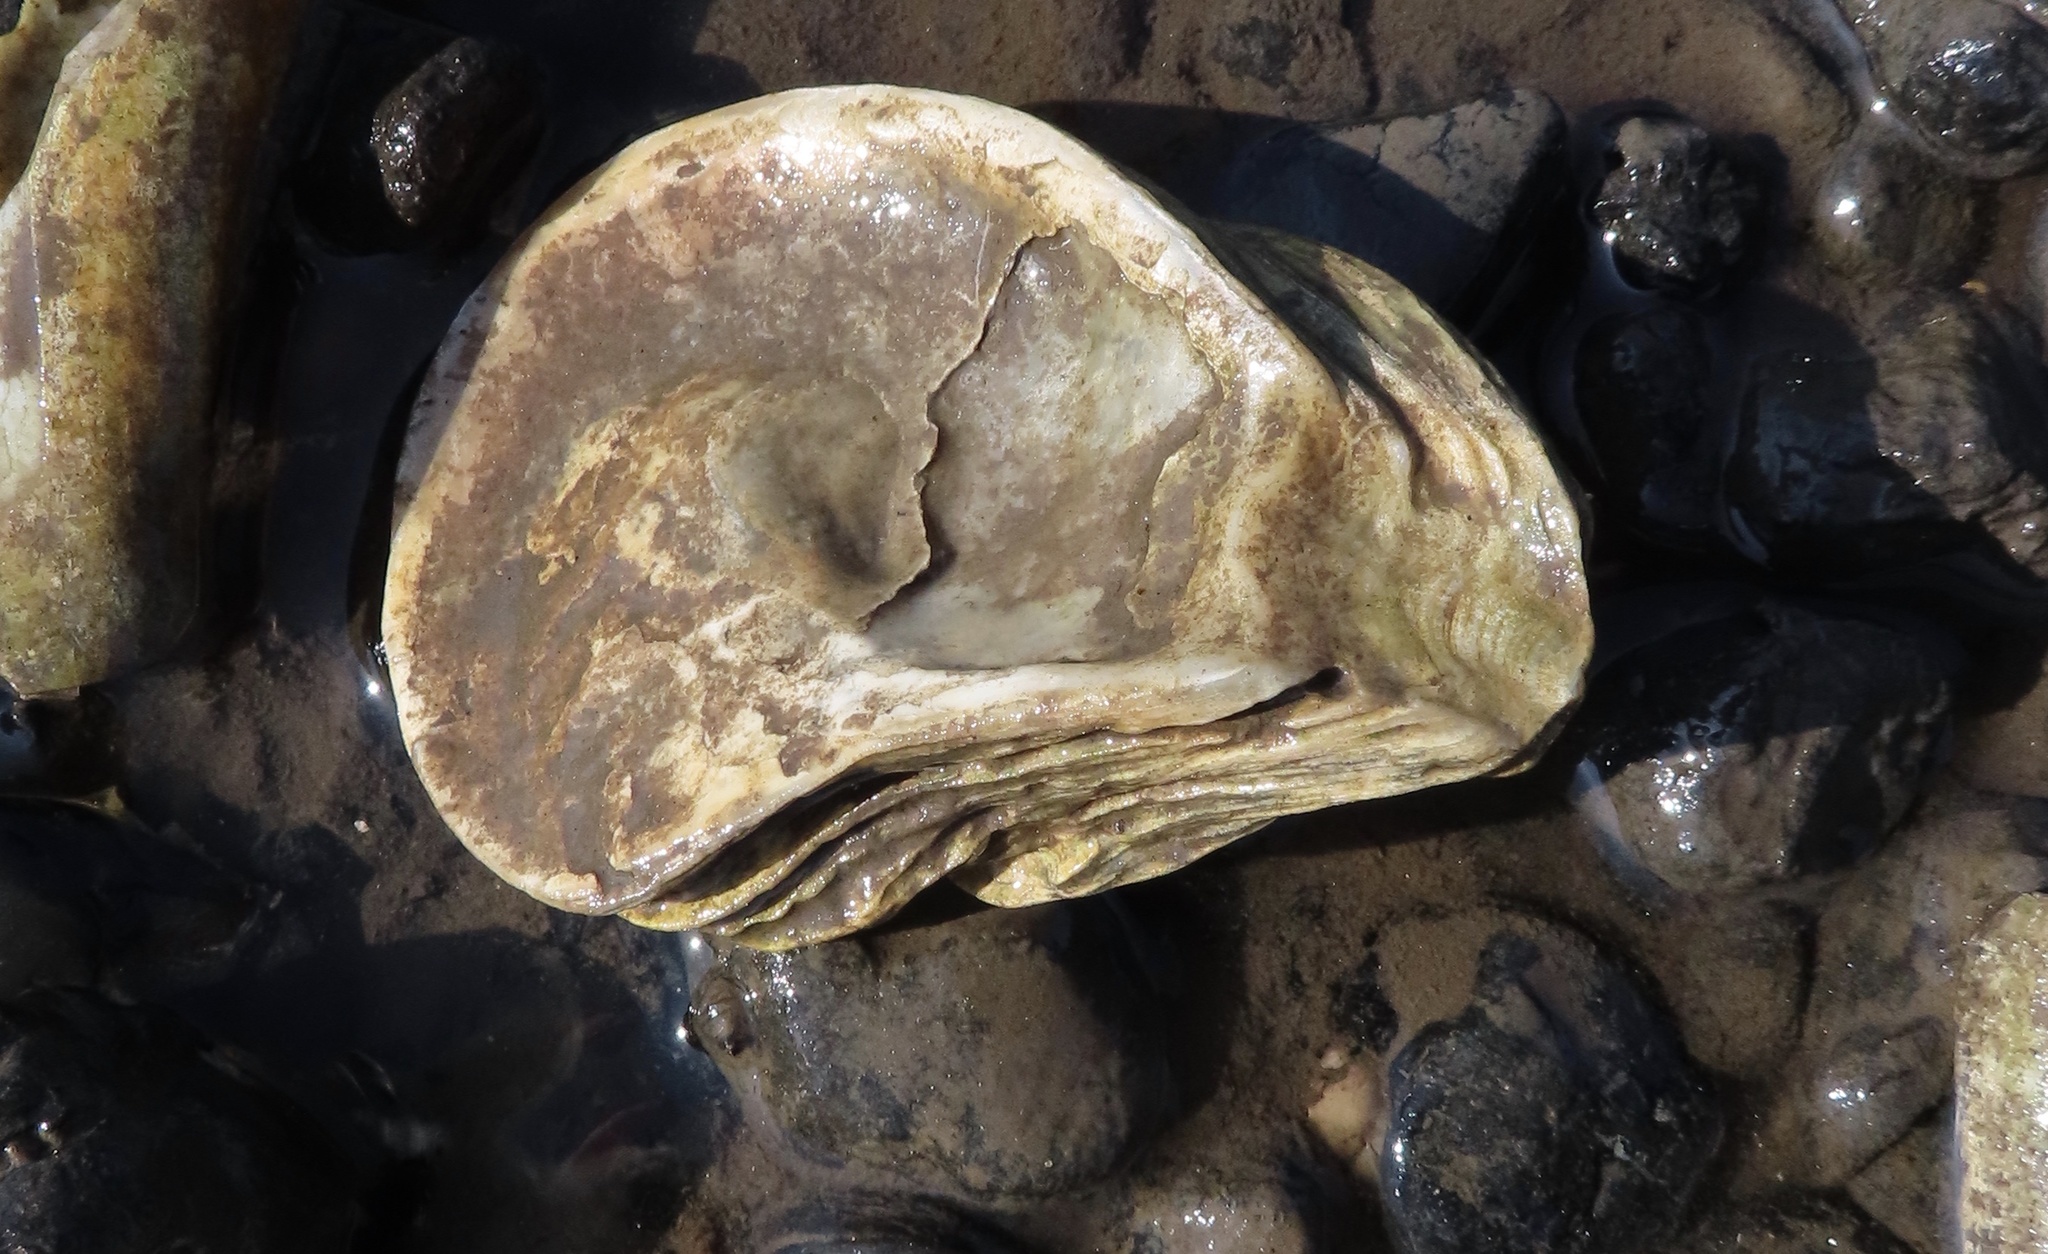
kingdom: Animalia
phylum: Mollusca
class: Bivalvia
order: Ostreida
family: Ostreidae
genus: Ostrea
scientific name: Ostrea edulis
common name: Flat oyster
